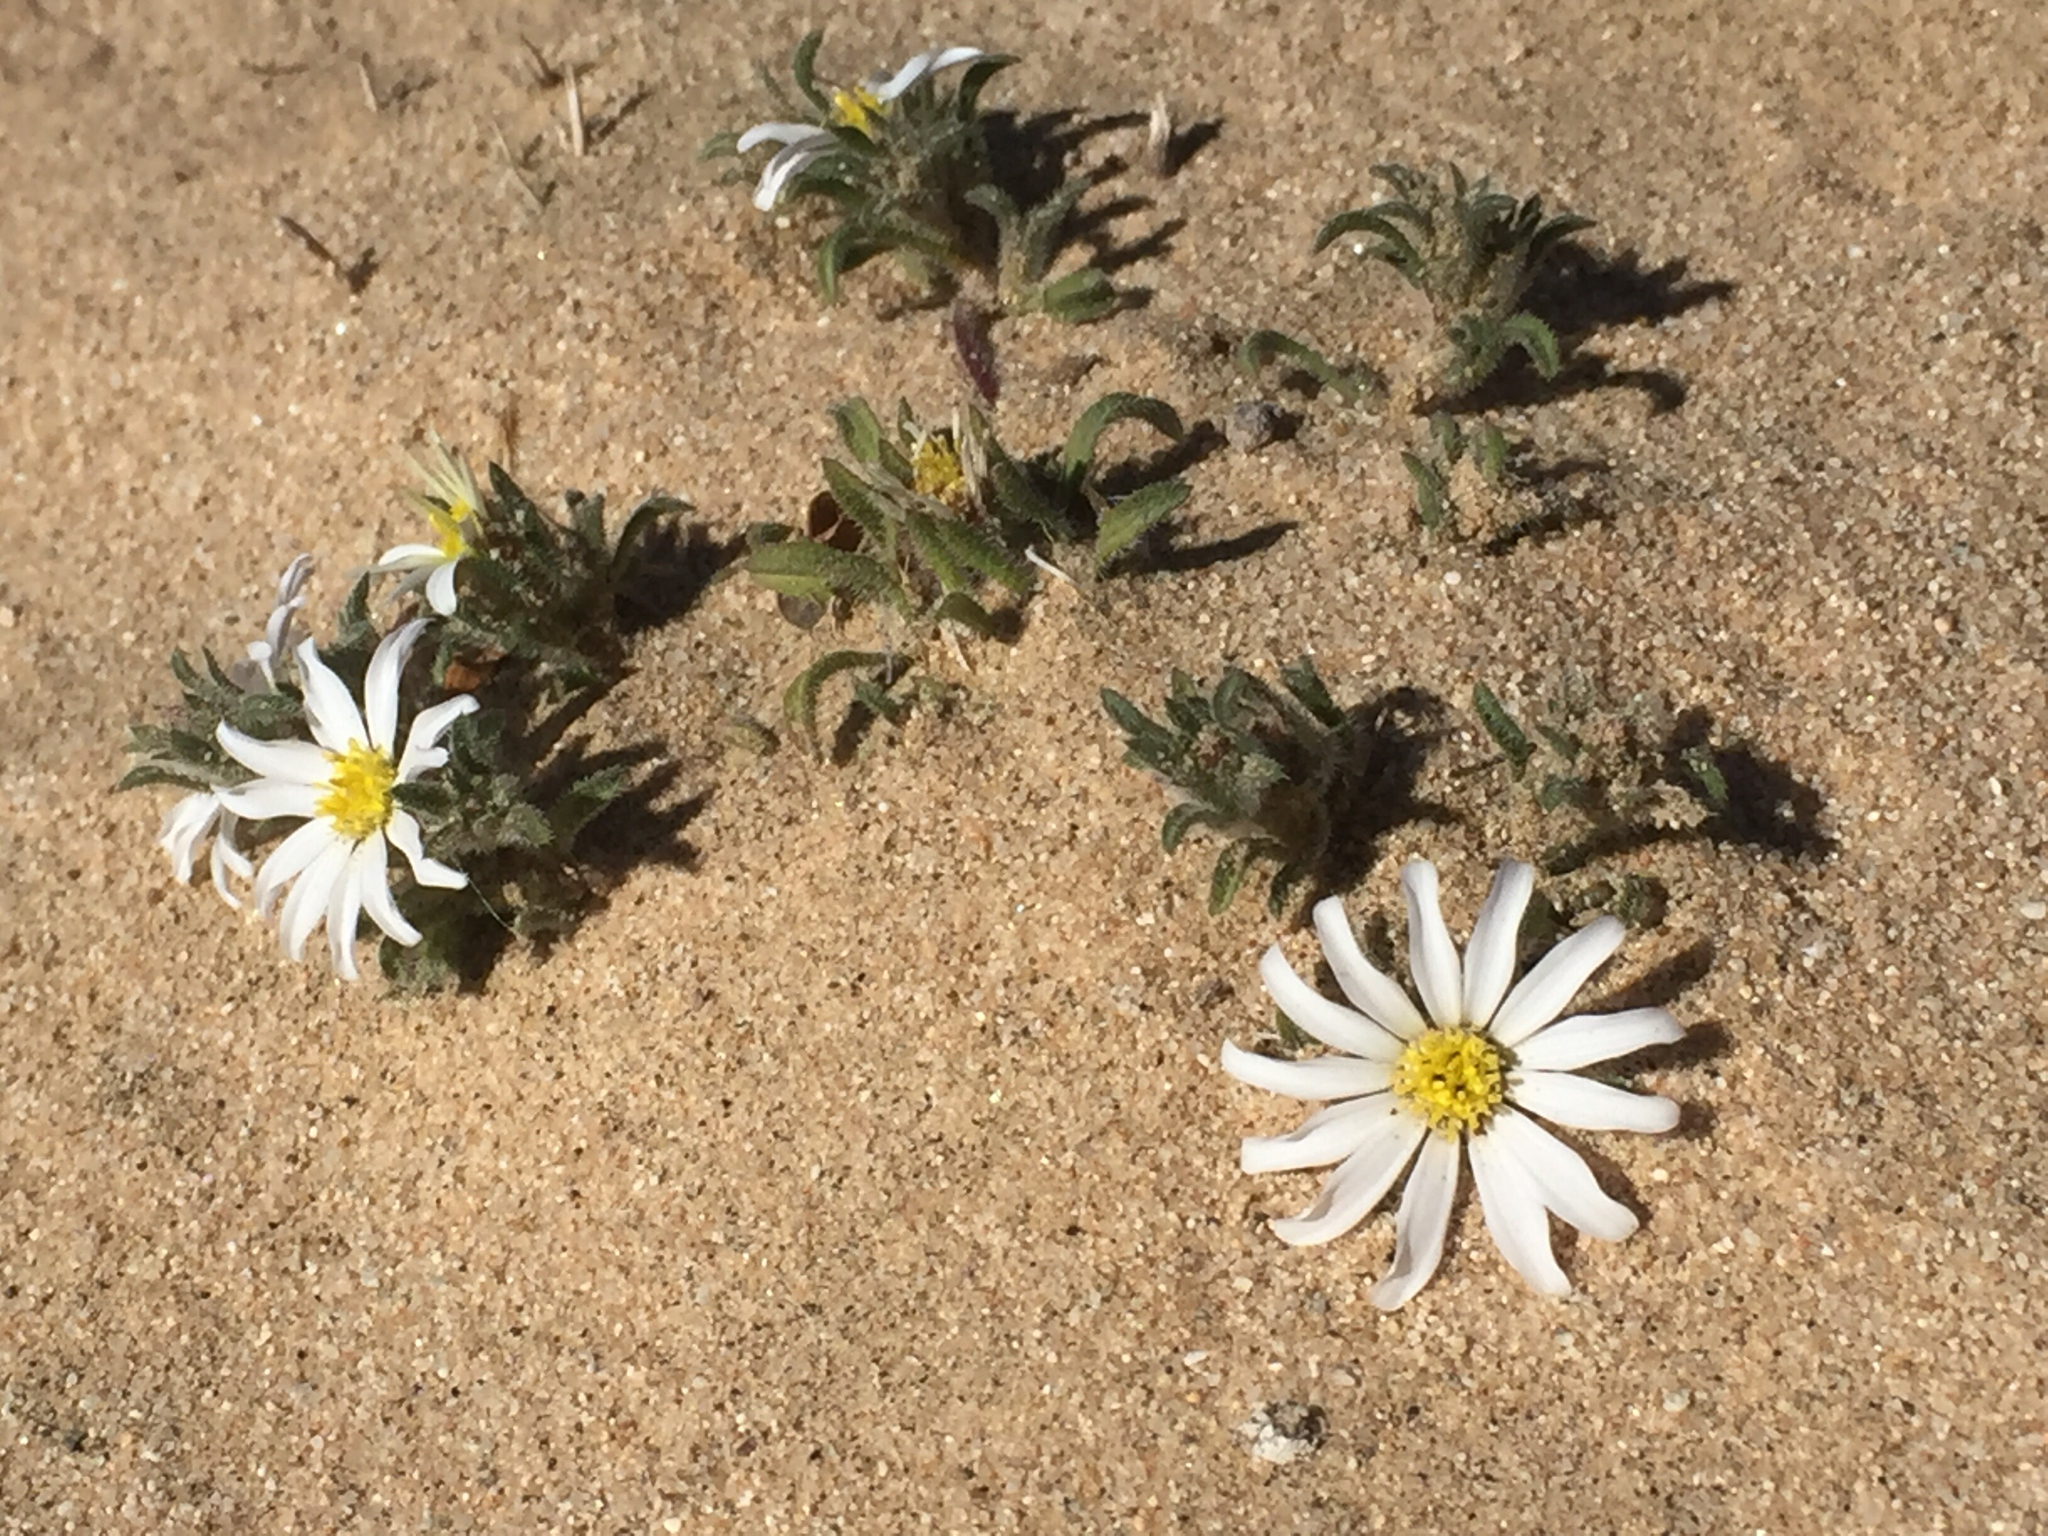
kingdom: Plantae
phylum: Tracheophyta
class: Magnoliopsida
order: Asterales
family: Asteraceae
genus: Monoptilon
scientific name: Monoptilon bellioides
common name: Bristly desertstar
